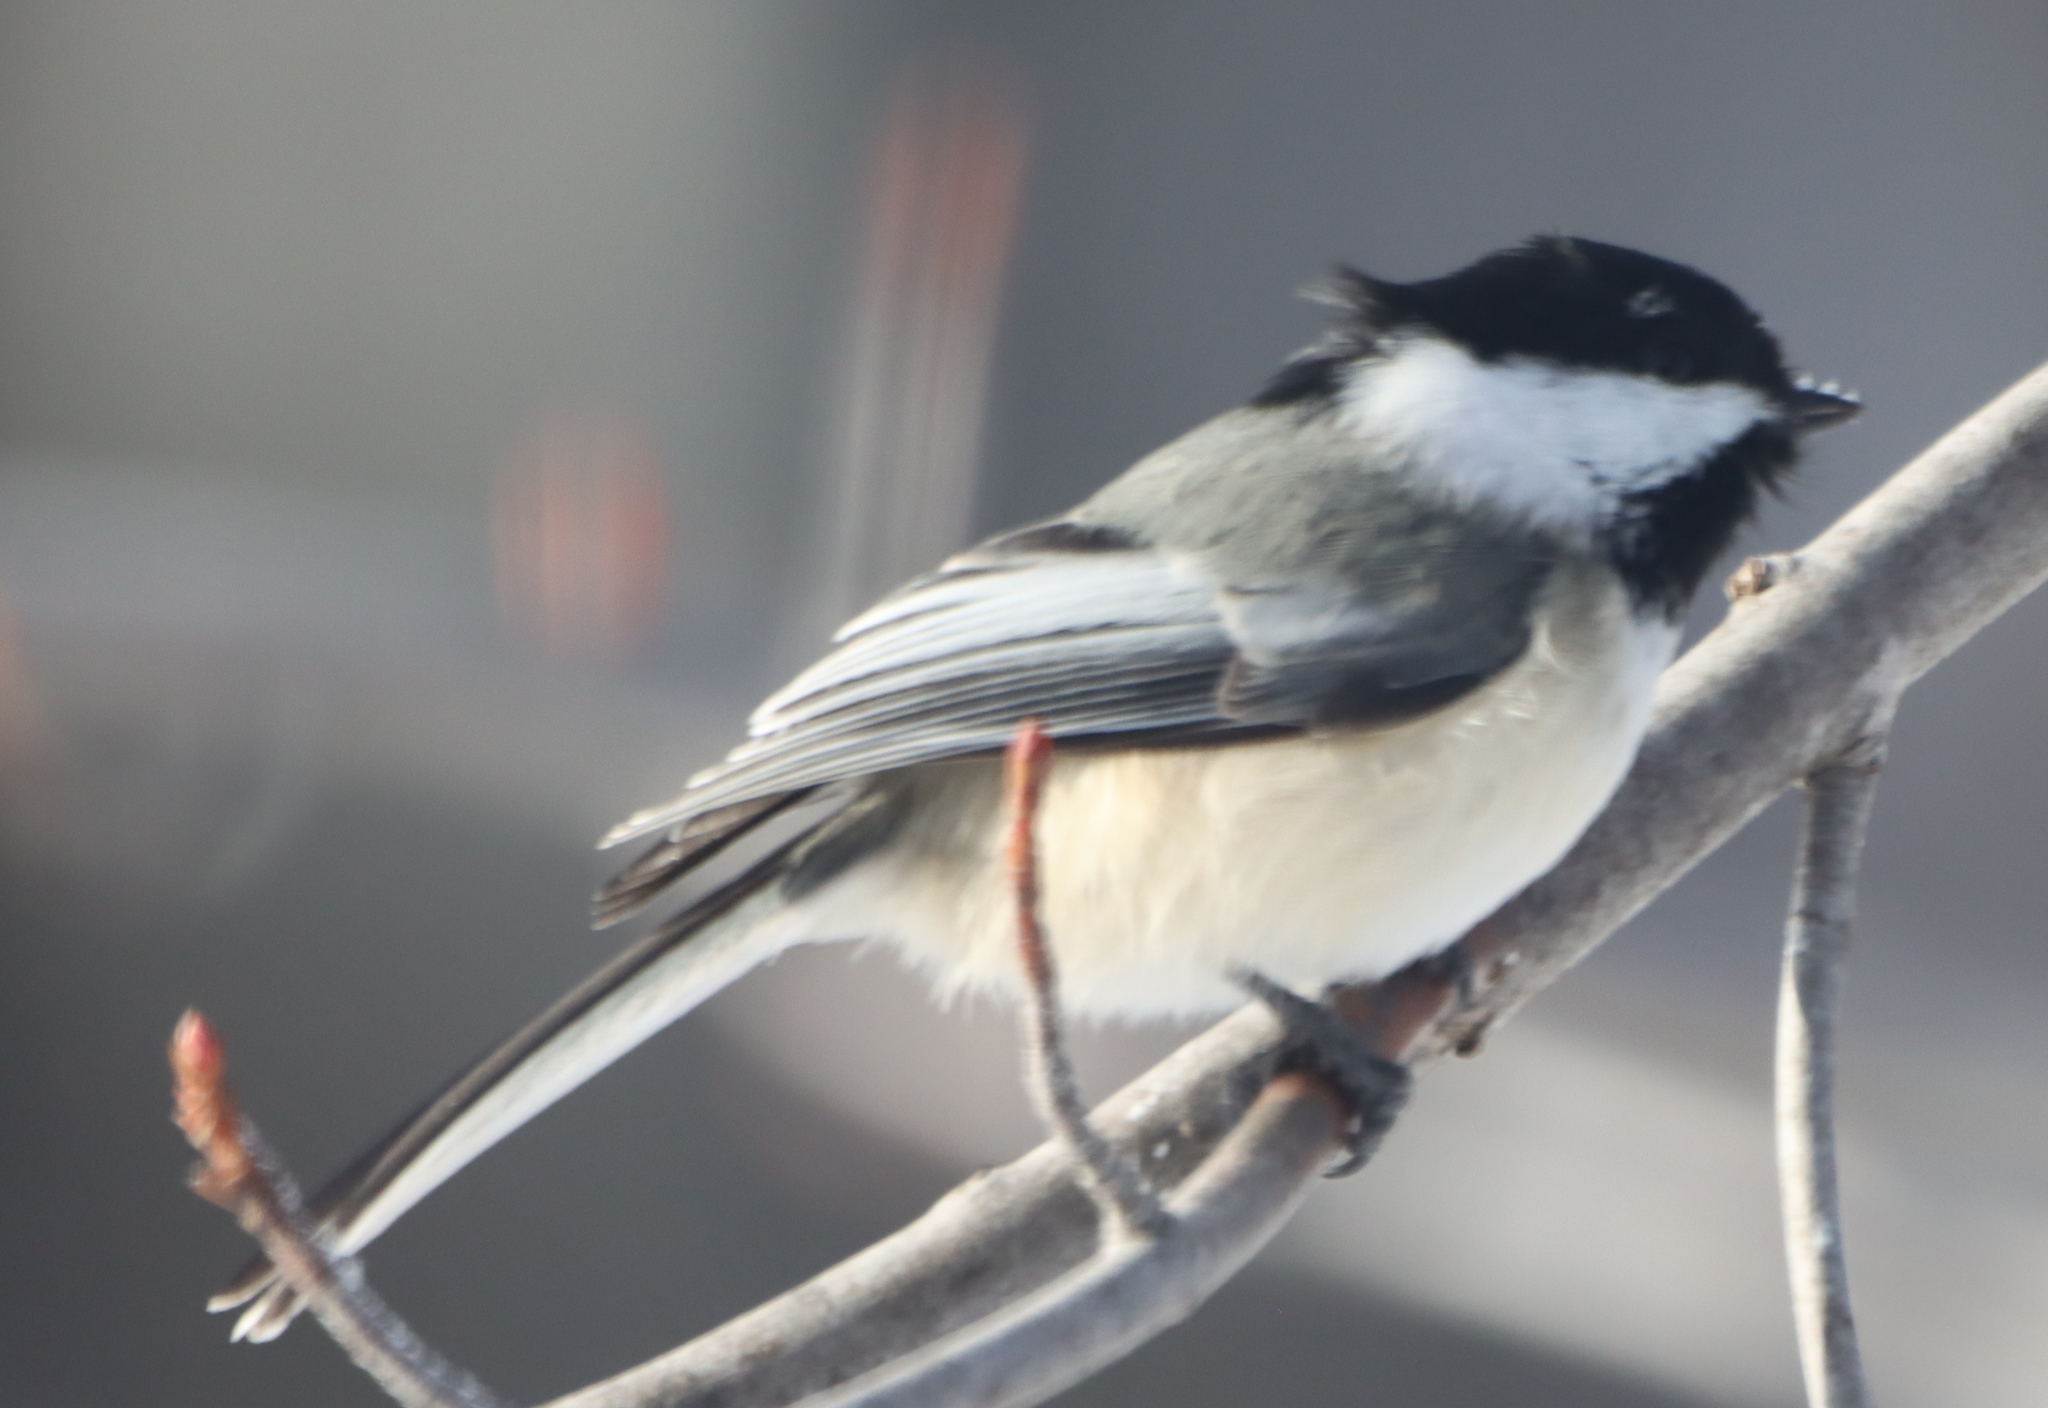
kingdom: Animalia
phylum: Chordata
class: Aves
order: Passeriformes
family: Paridae
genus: Poecile
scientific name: Poecile atricapillus
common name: Black-capped chickadee
